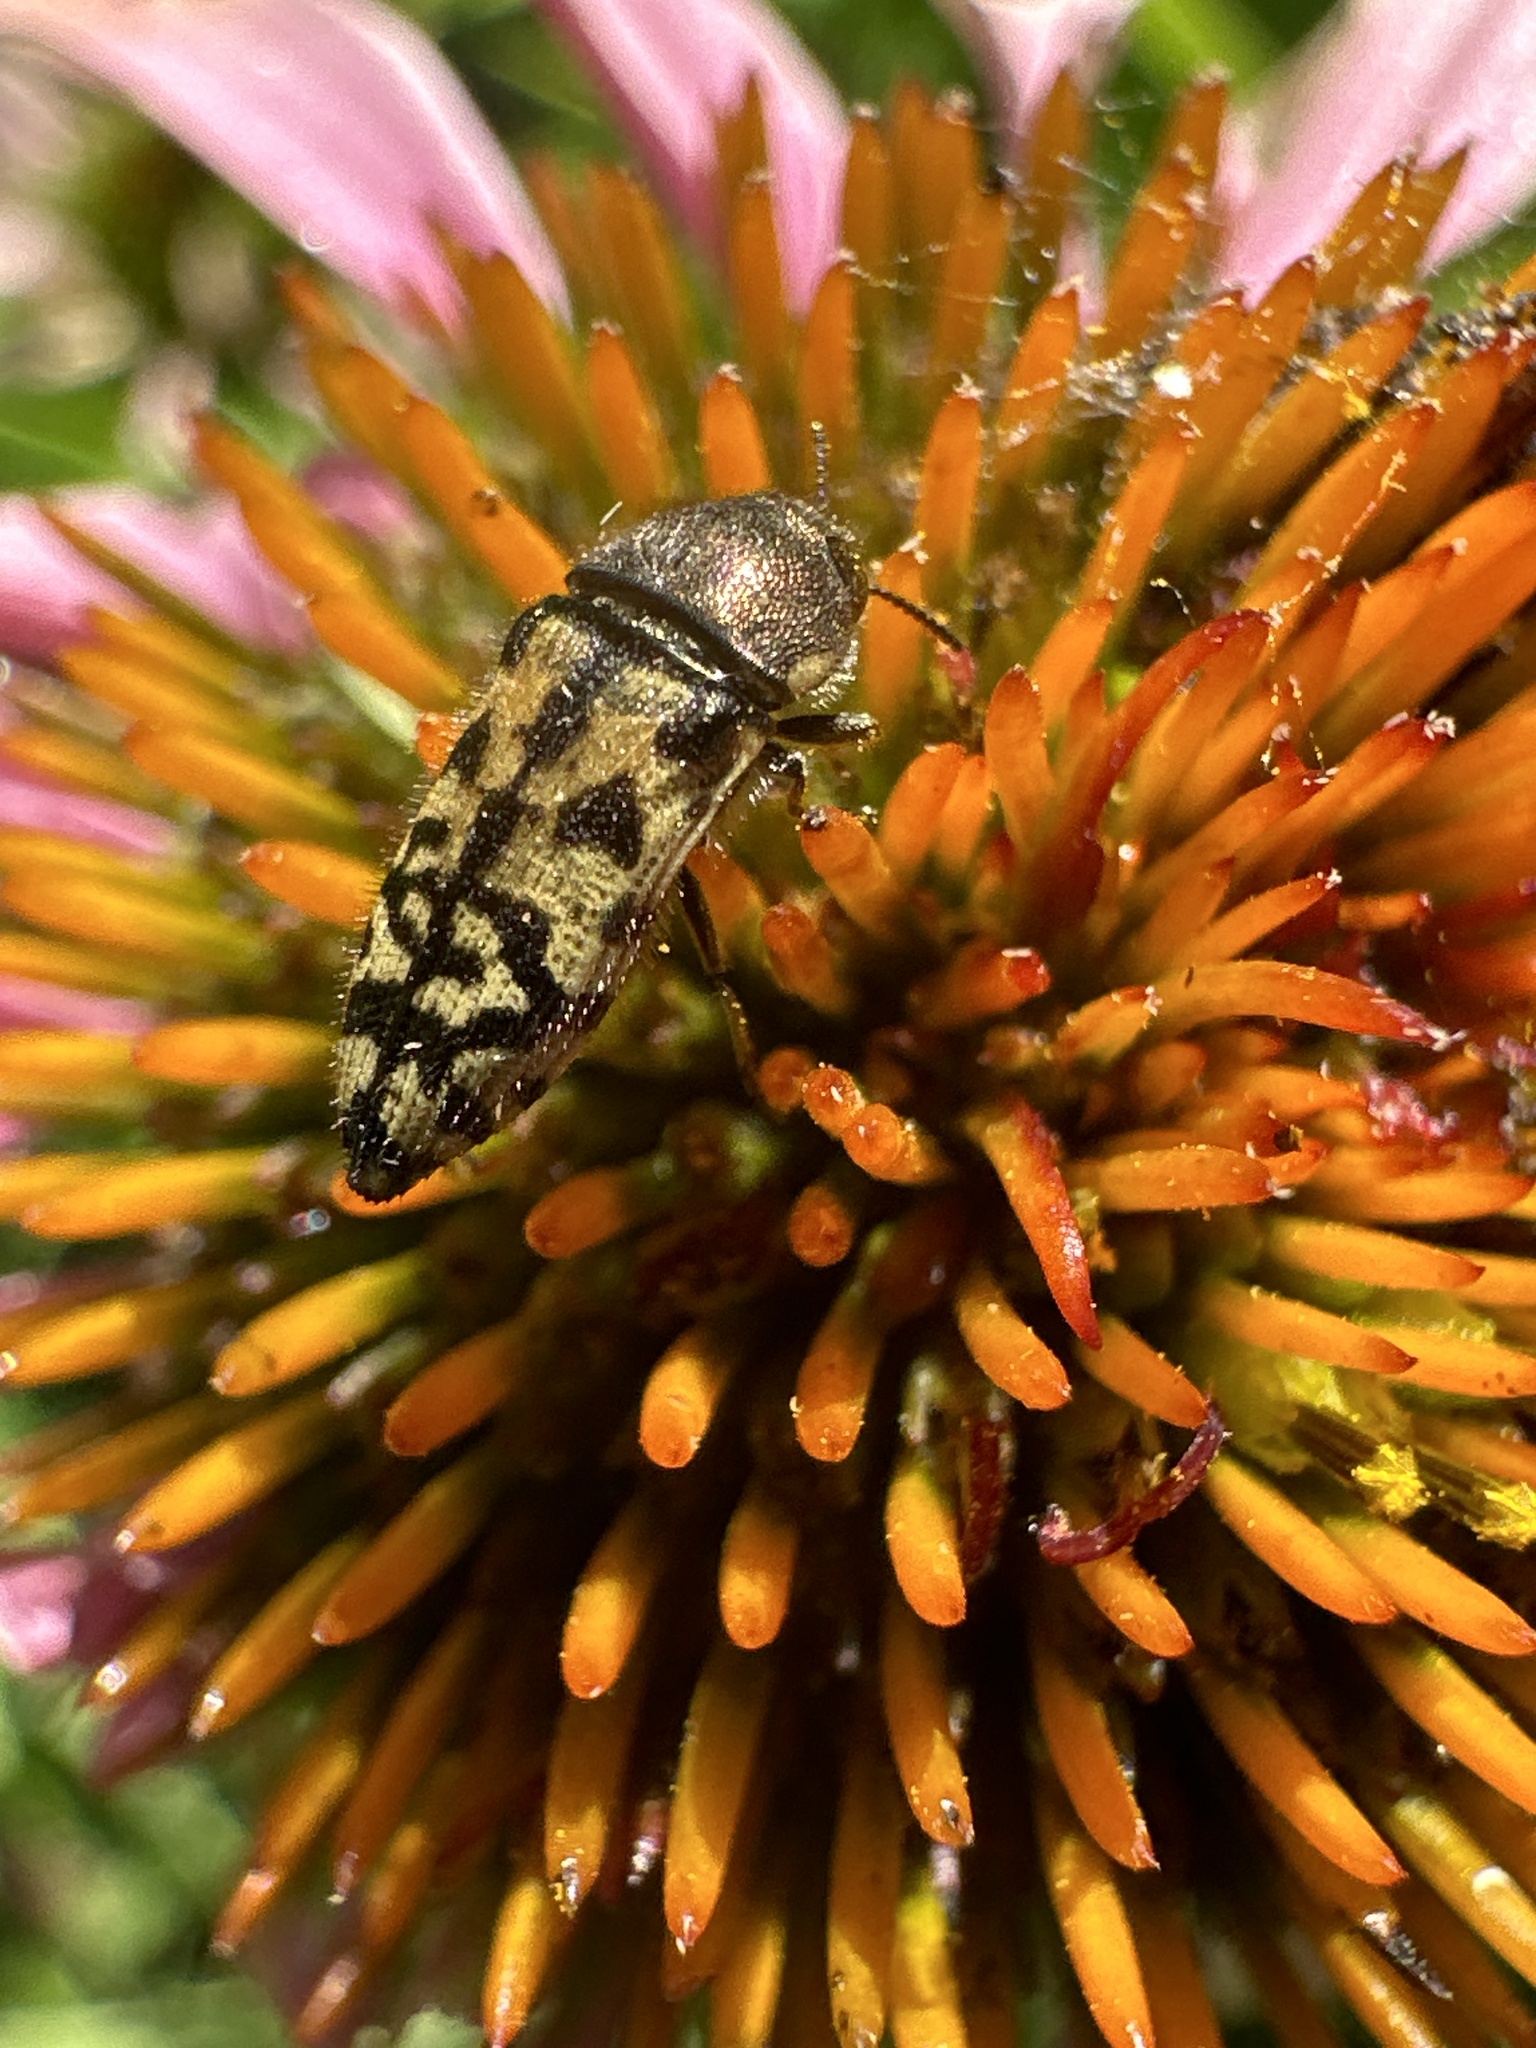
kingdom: Animalia
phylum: Arthropoda
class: Insecta
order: Coleoptera
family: Buprestidae
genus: Acmaeodera
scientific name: Acmaeodera mixta
